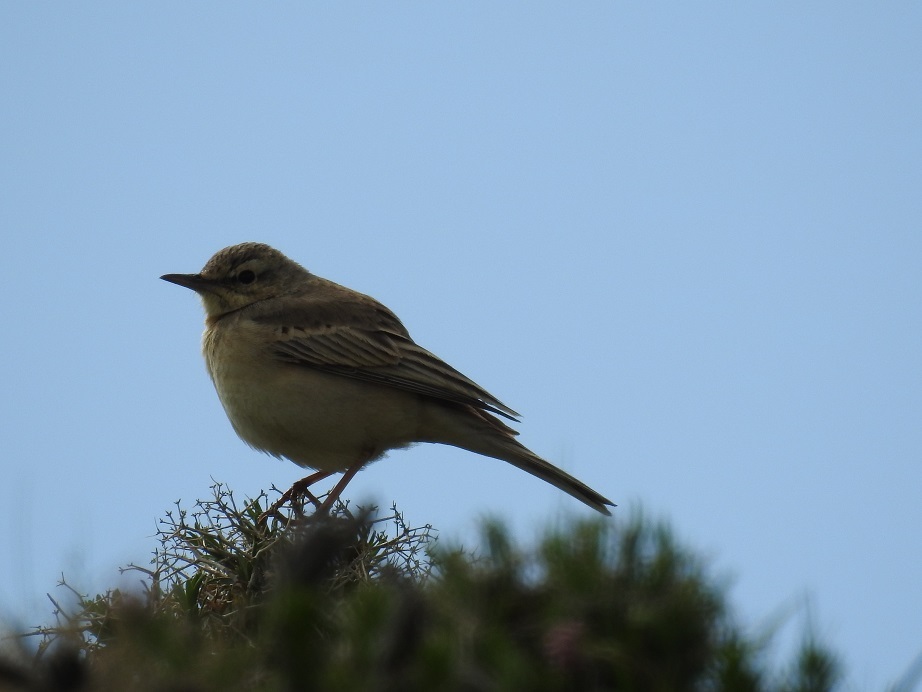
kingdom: Animalia
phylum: Chordata
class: Aves
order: Passeriformes
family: Motacillidae
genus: Anthus
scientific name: Anthus campestris
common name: Tawny pipit
